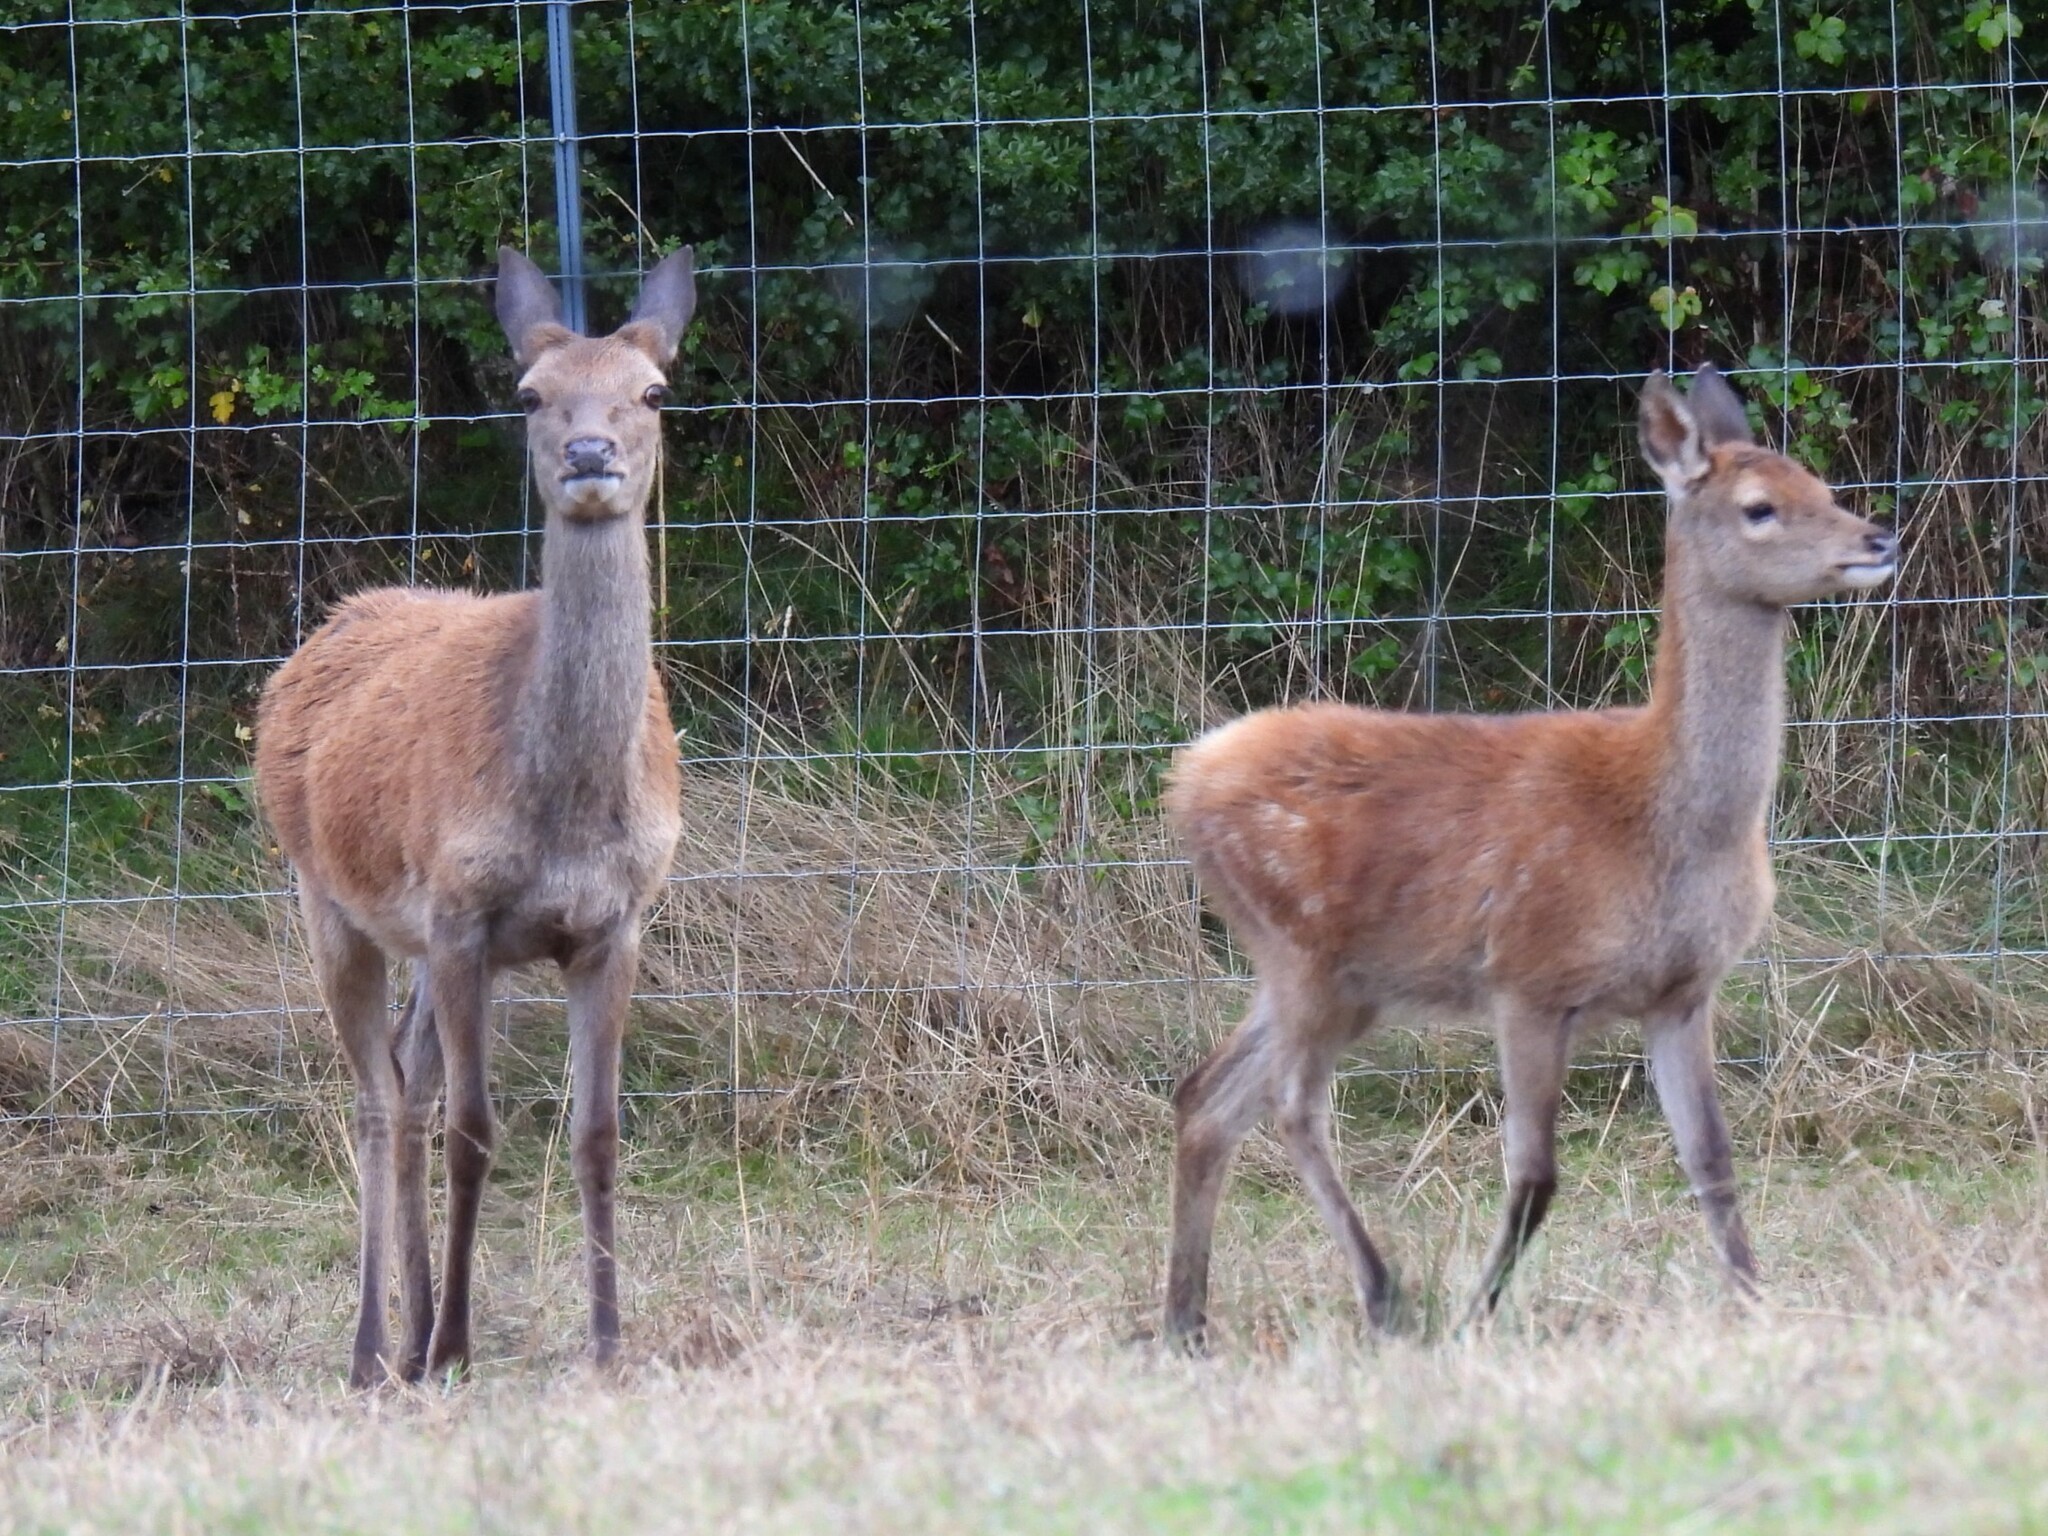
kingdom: Animalia
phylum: Chordata
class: Mammalia
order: Artiodactyla
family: Cervidae
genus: Cervus
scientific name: Cervus nippon
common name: Sika deer
